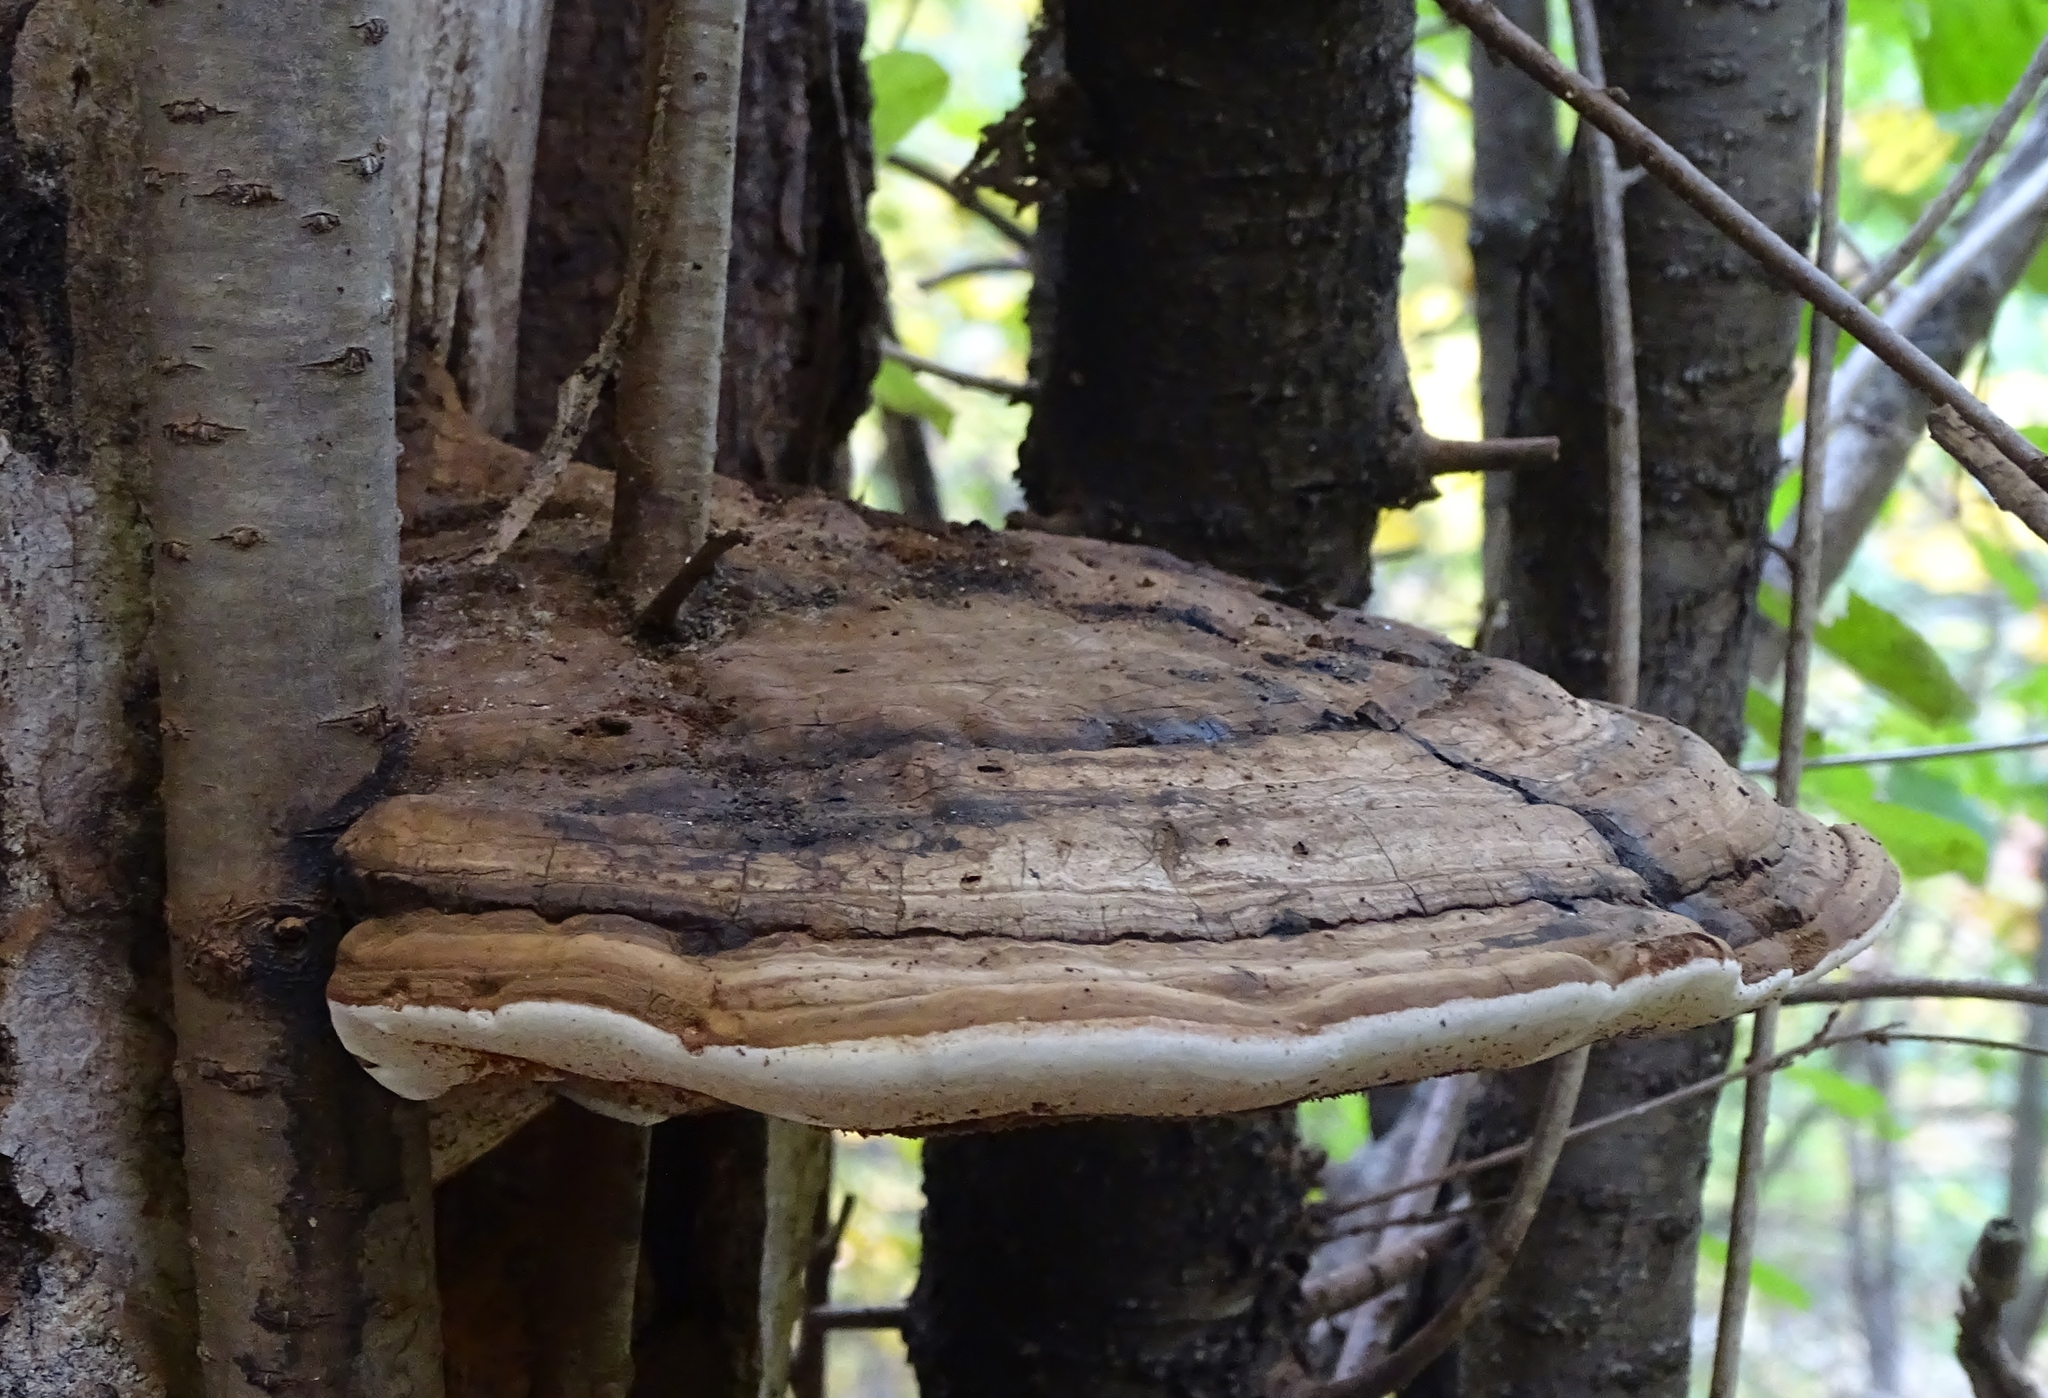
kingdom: Fungi
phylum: Basidiomycota
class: Agaricomycetes
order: Polyporales
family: Polyporaceae
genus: Ganoderma
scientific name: Ganoderma applanatum
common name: Artist's bracket
